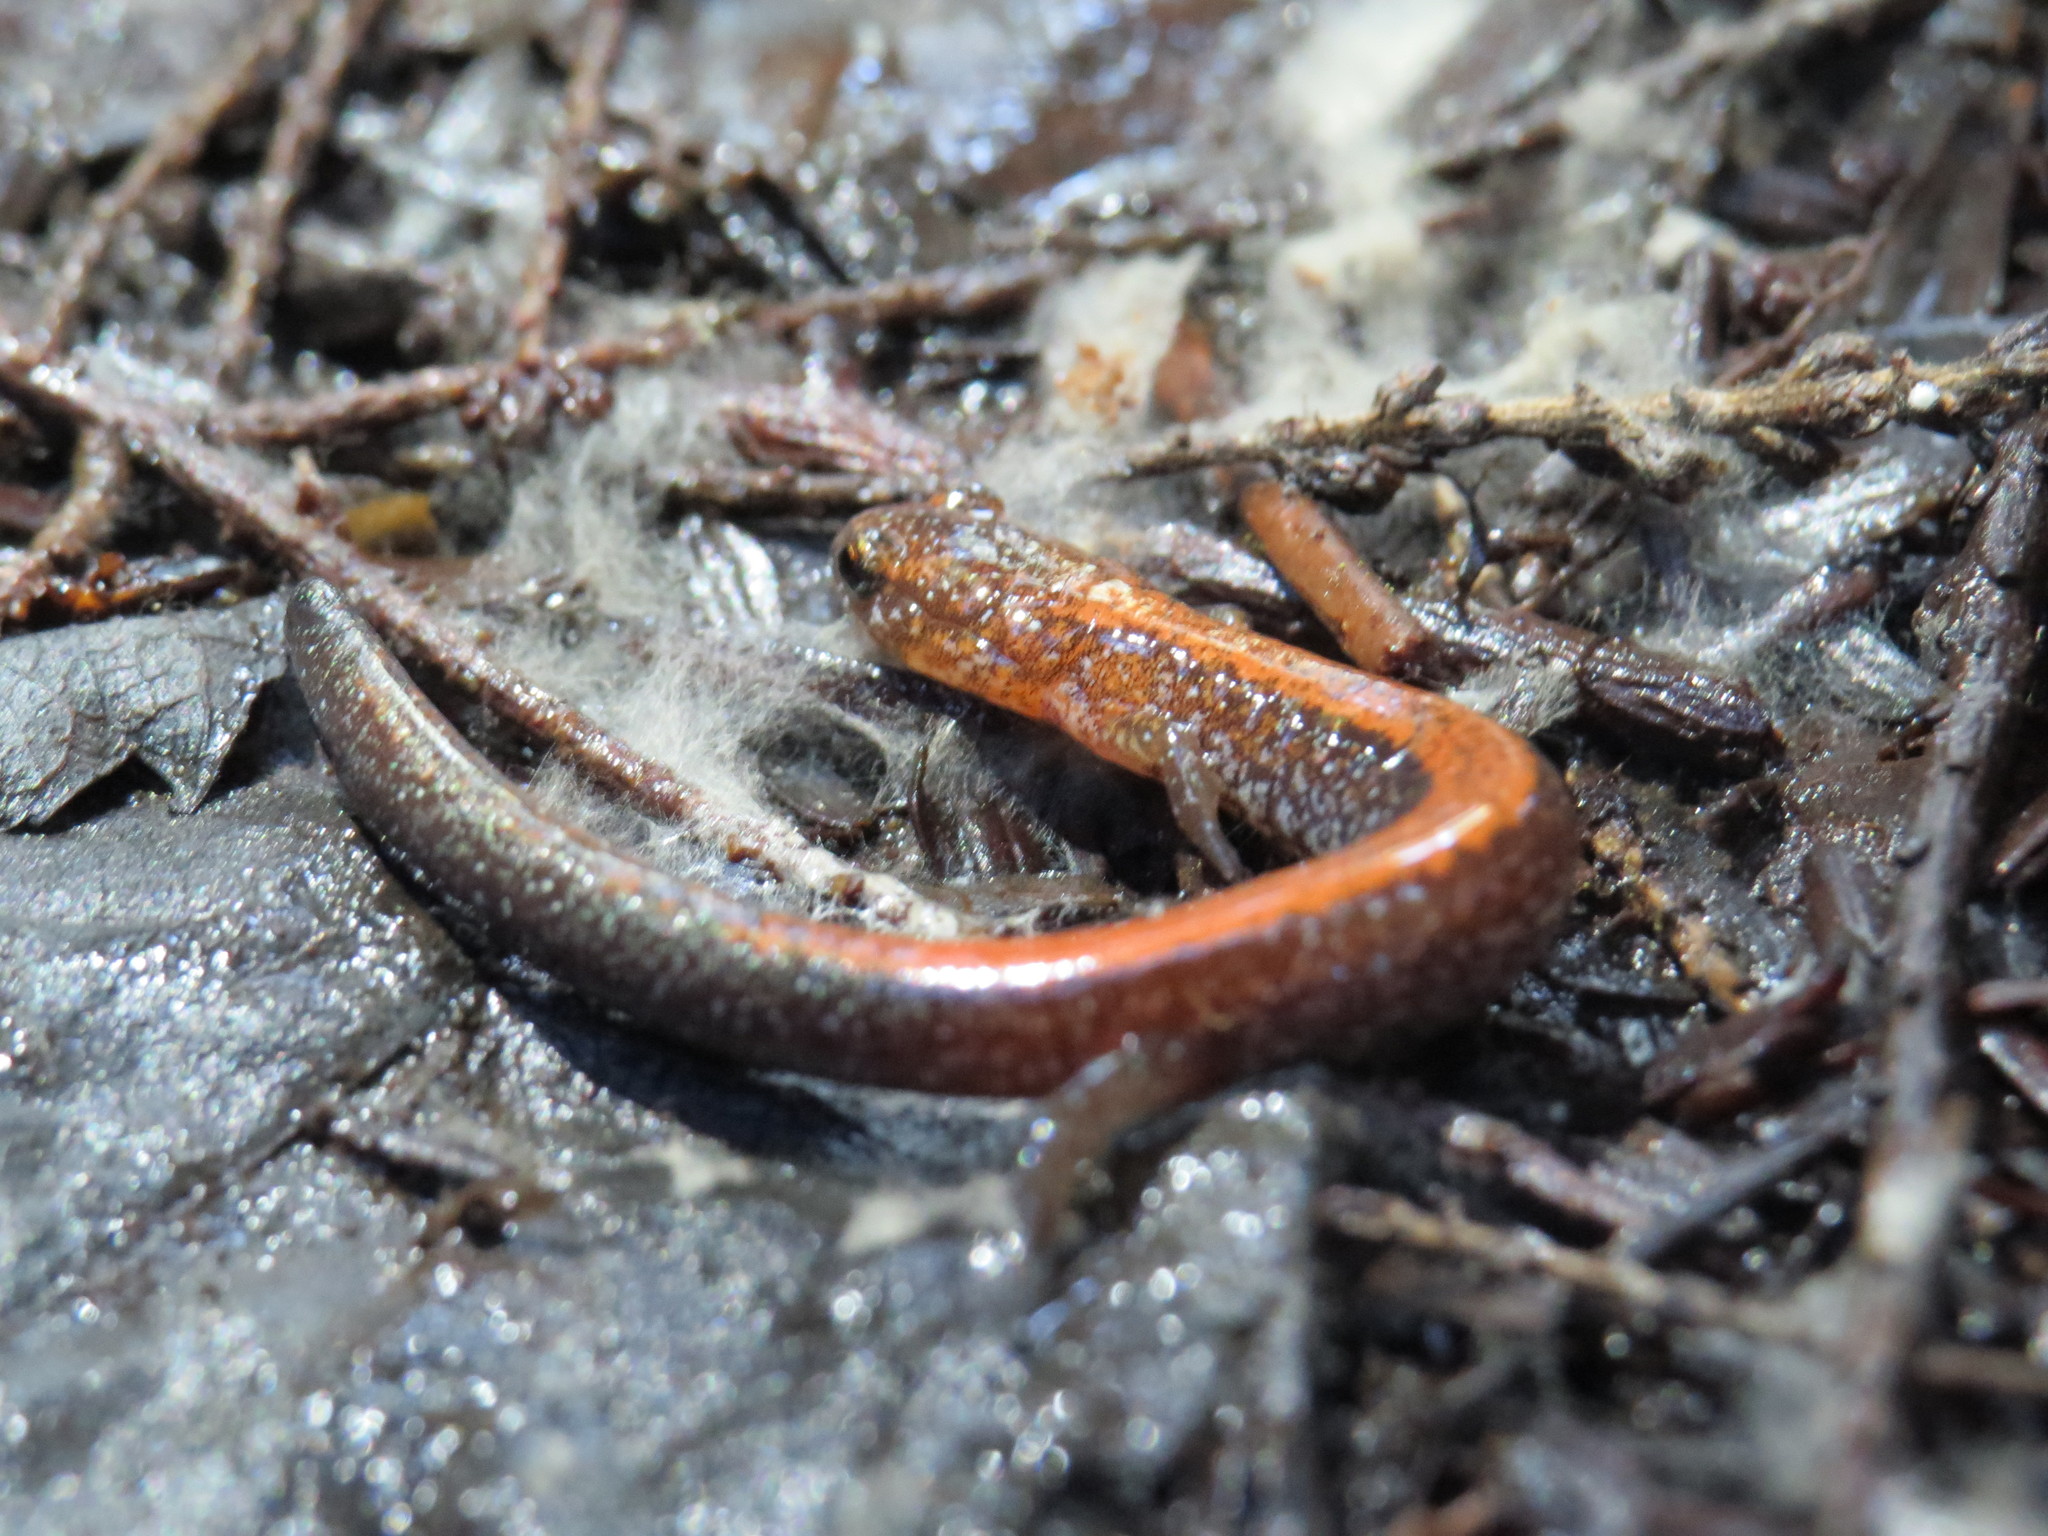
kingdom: Animalia
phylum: Chordata
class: Amphibia
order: Caudata
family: Plethodontidae
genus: Plethodon
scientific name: Plethodon cinereus
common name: Redback salamander
